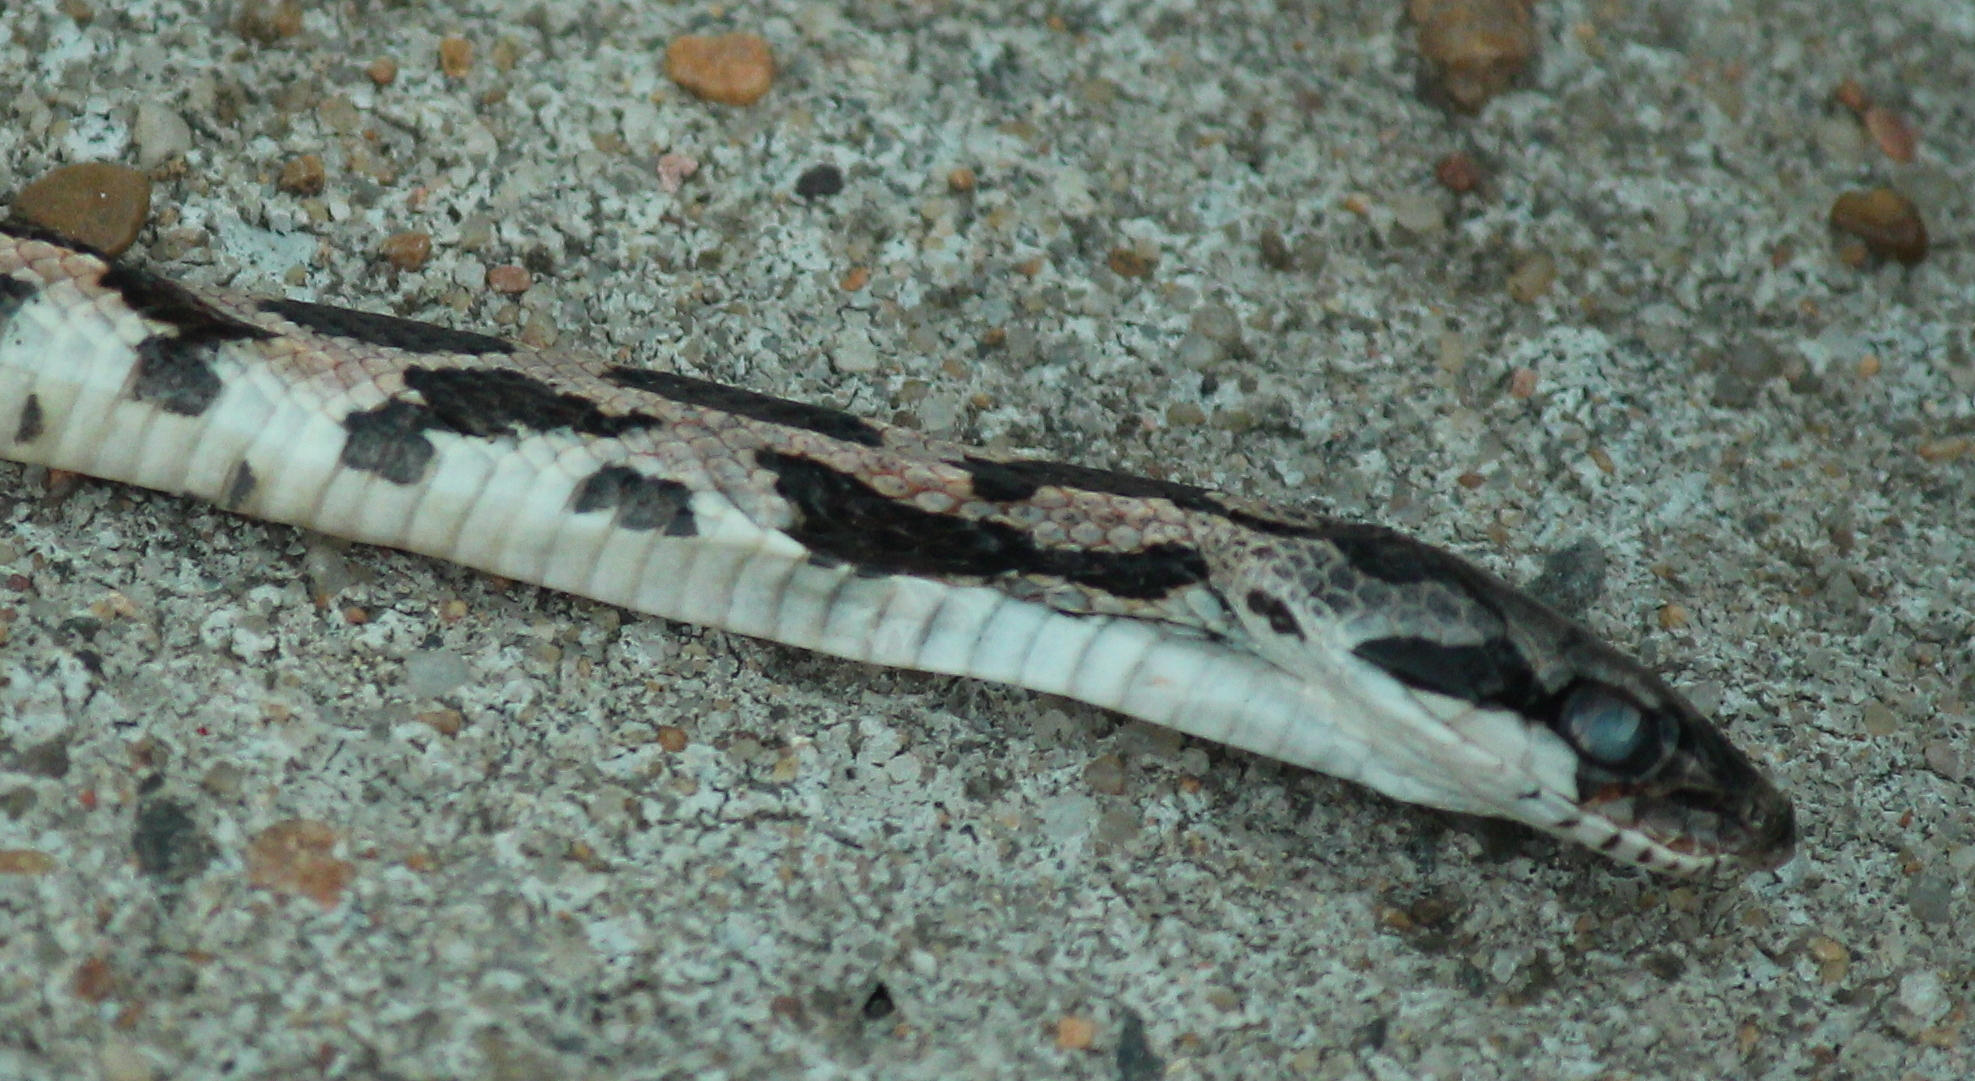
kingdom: Animalia
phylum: Chordata
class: Squamata
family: Colubridae
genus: Pantherophis
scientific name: Pantherophis obsoletus
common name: Black rat snake
